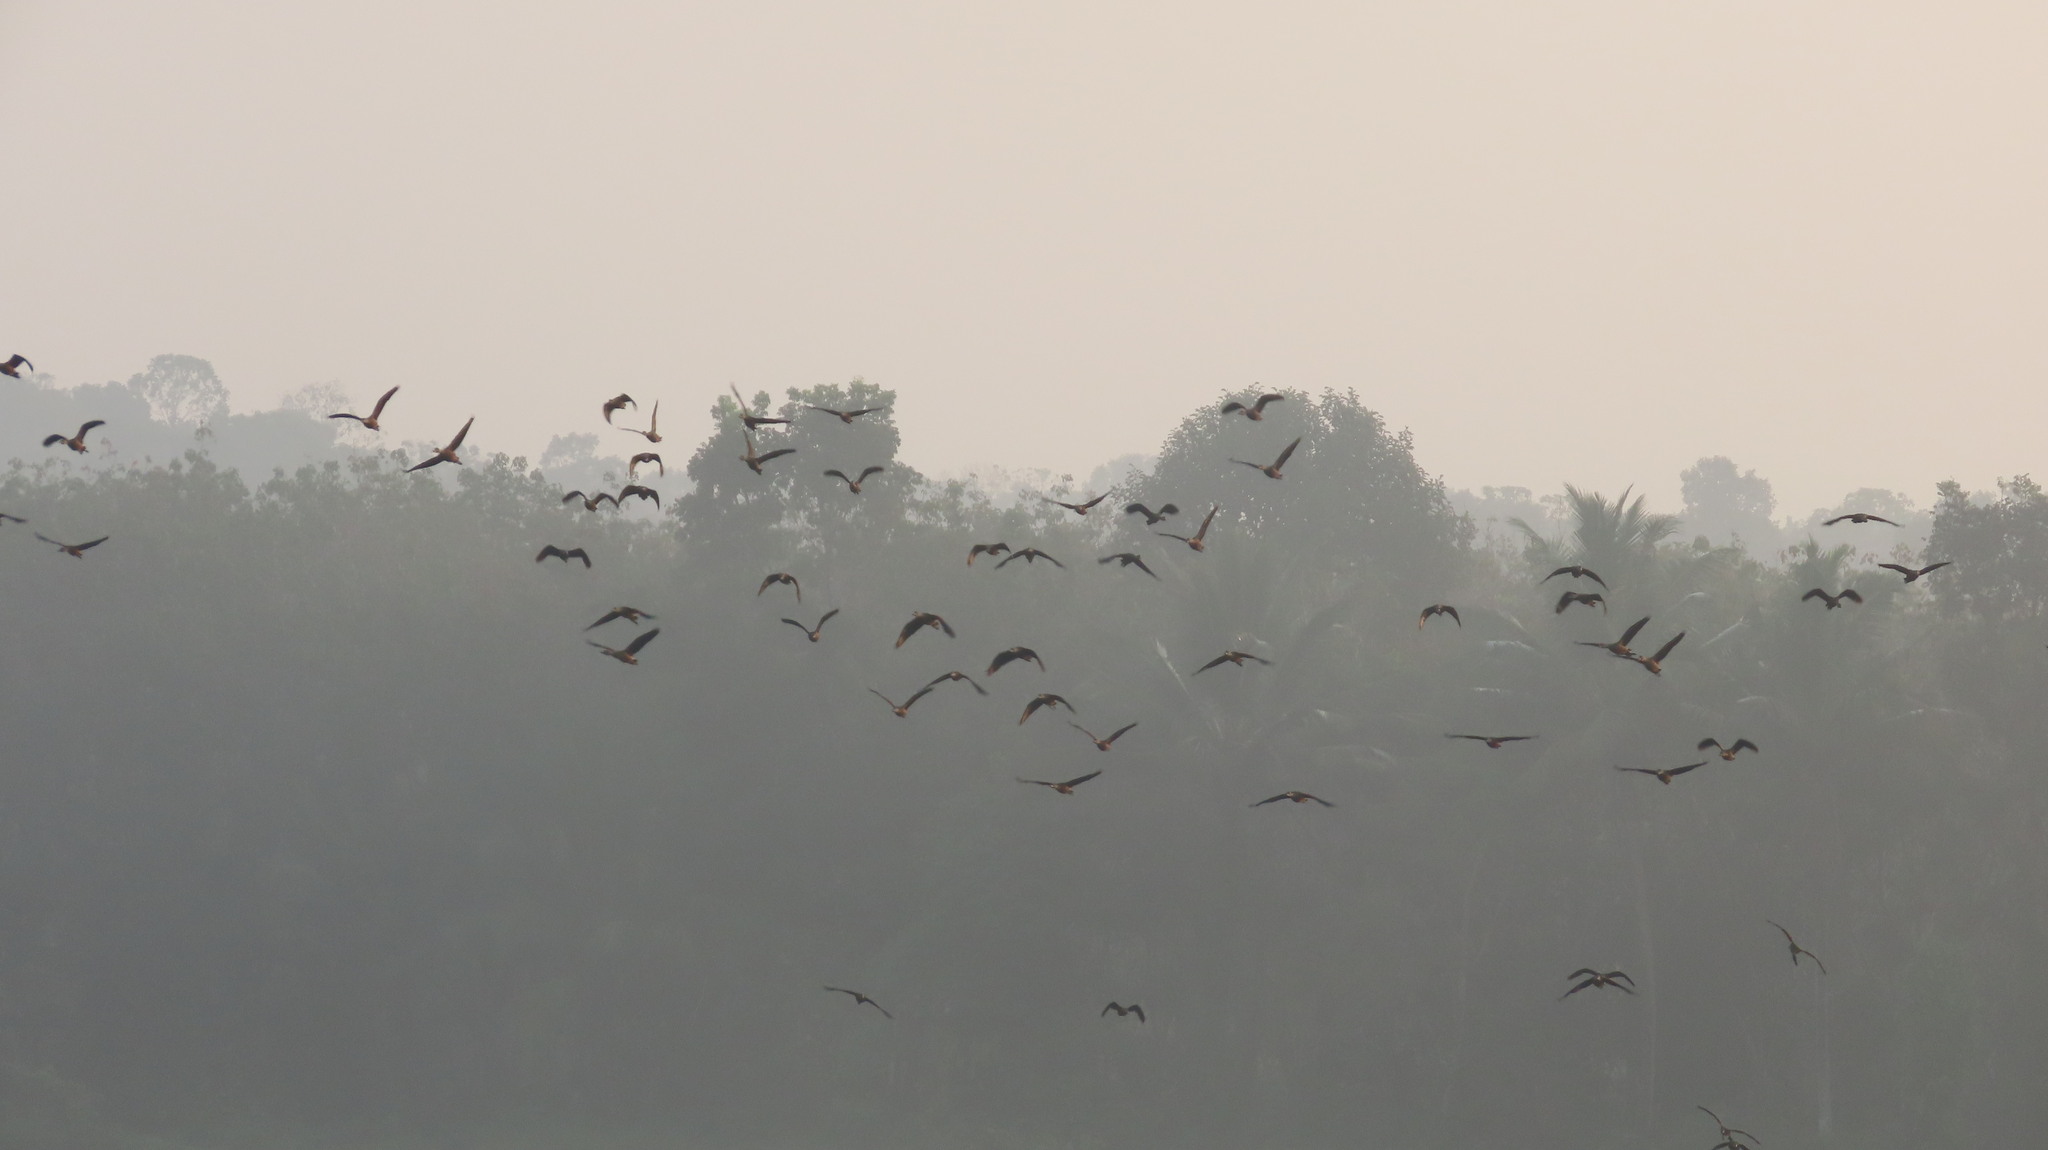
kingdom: Animalia
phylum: Chordata
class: Aves
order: Anseriformes
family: Anatidae
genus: Dendrocygna
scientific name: Dendrocygna javanica
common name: Lesser whistling-duck
